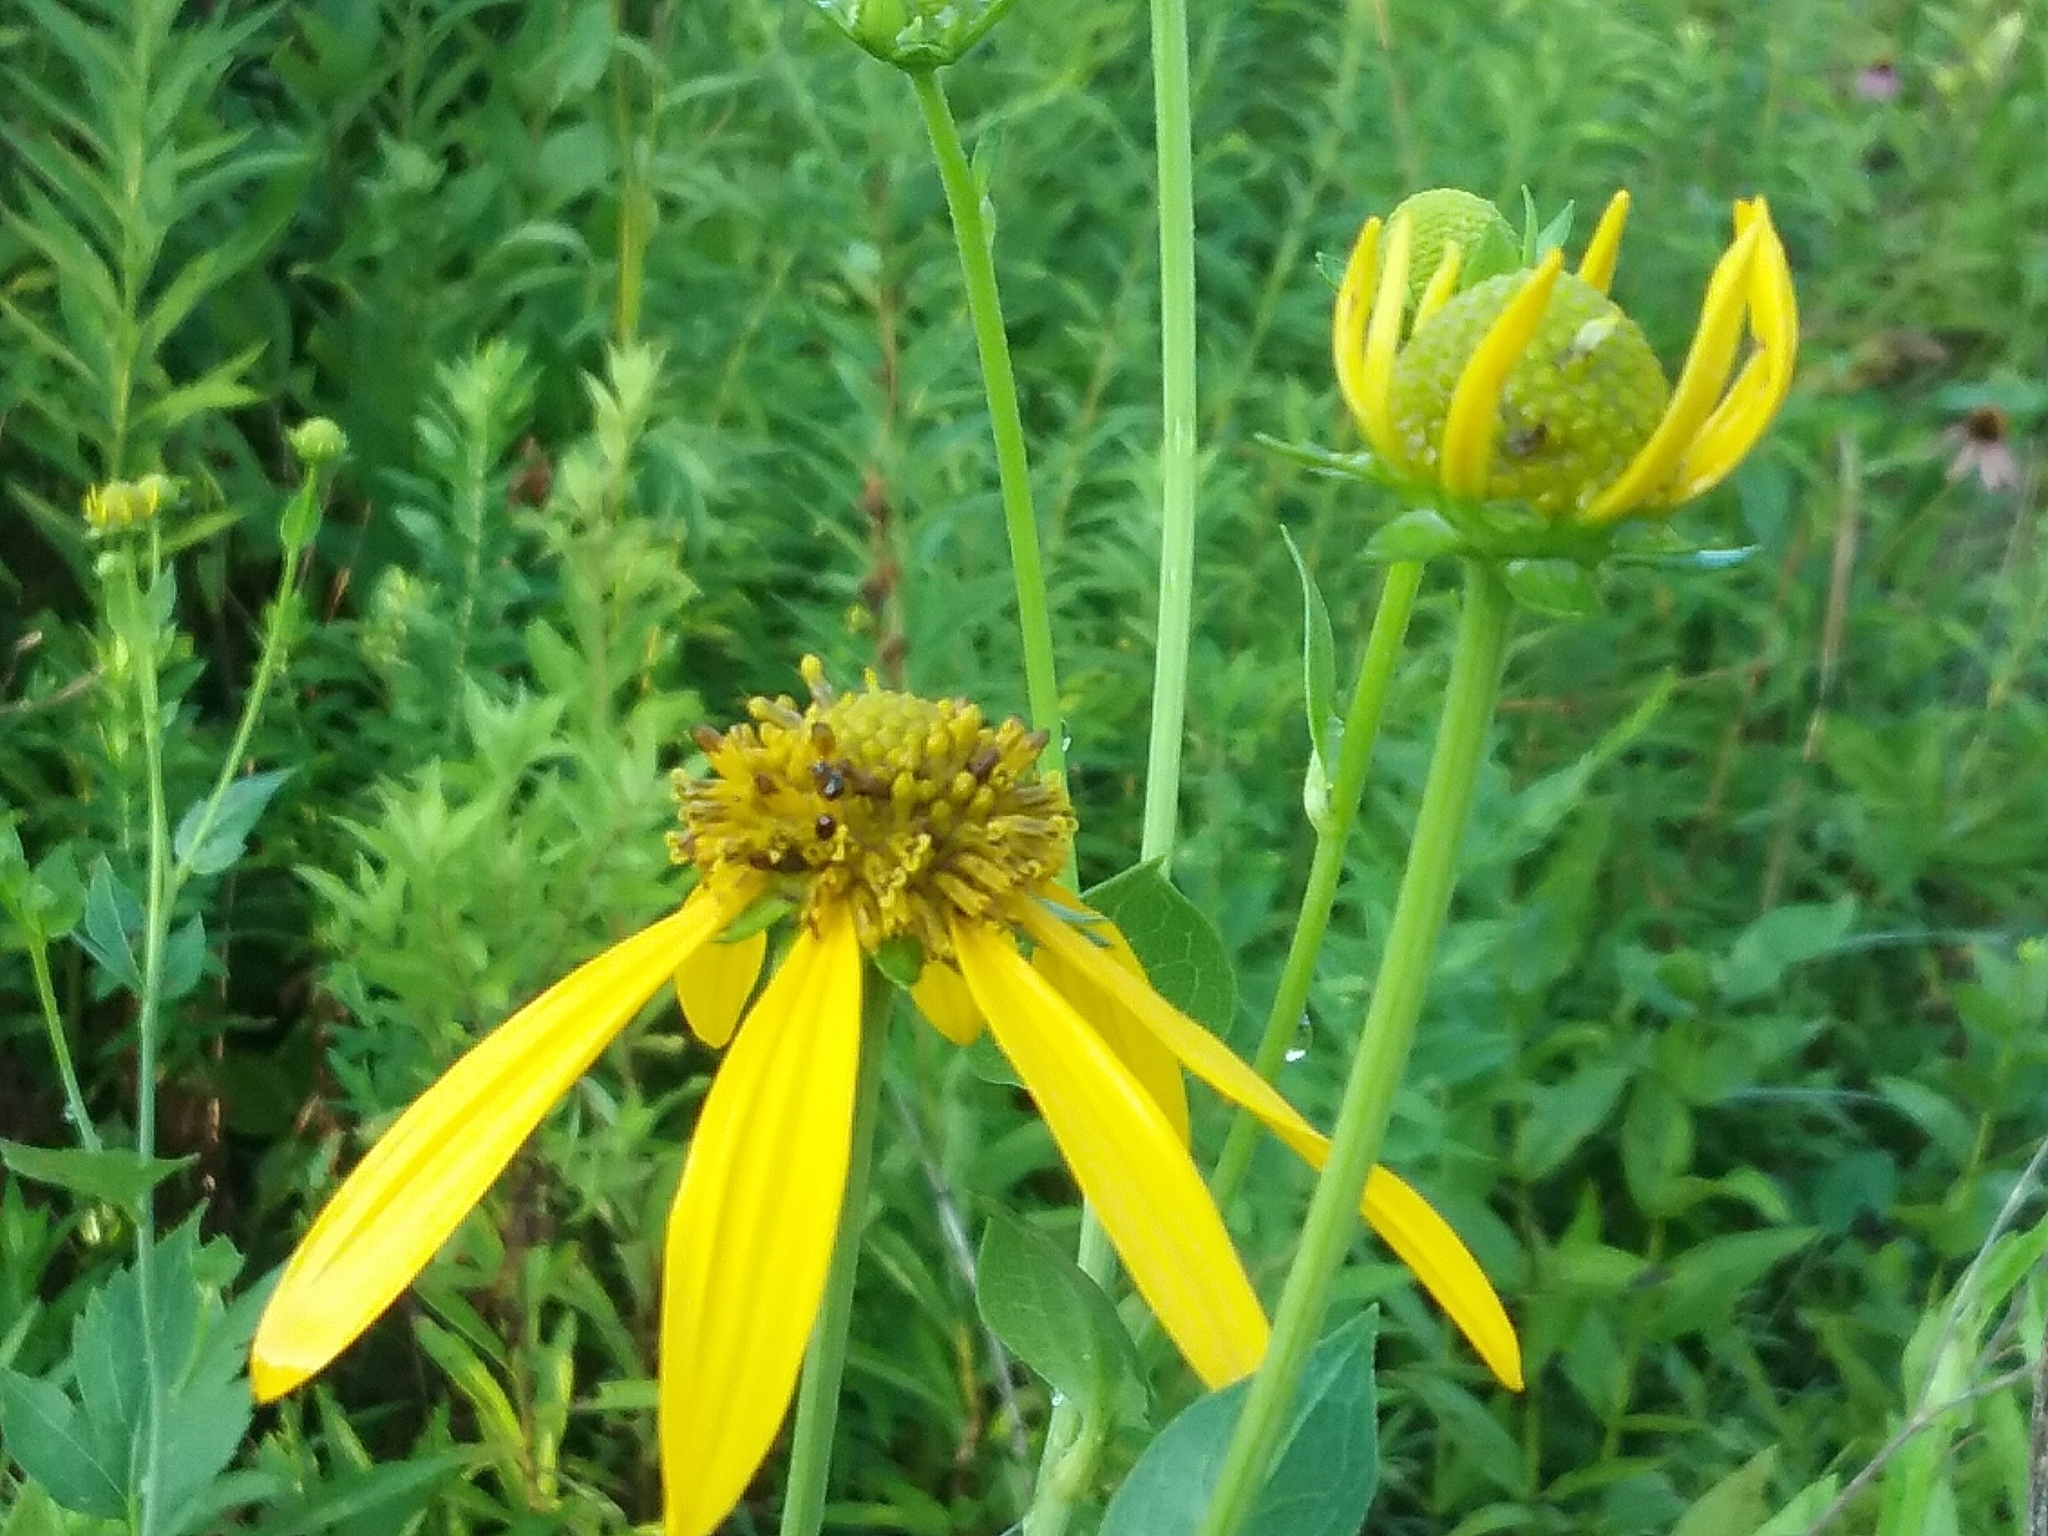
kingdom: Plantae
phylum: Tracheophyta
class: Magnoliopsida
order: Asterales
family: Asteraceae
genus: Rudbeckia
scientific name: Rudbeckia laciniata
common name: Coneflower
